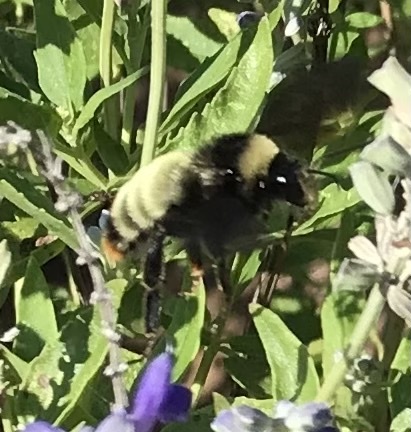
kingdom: Animalia
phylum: Arthropoda
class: Insecta
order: Hymenoptera
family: Apidae
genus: Bombus
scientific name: Bombus pensylvanicus
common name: Bumble bee
